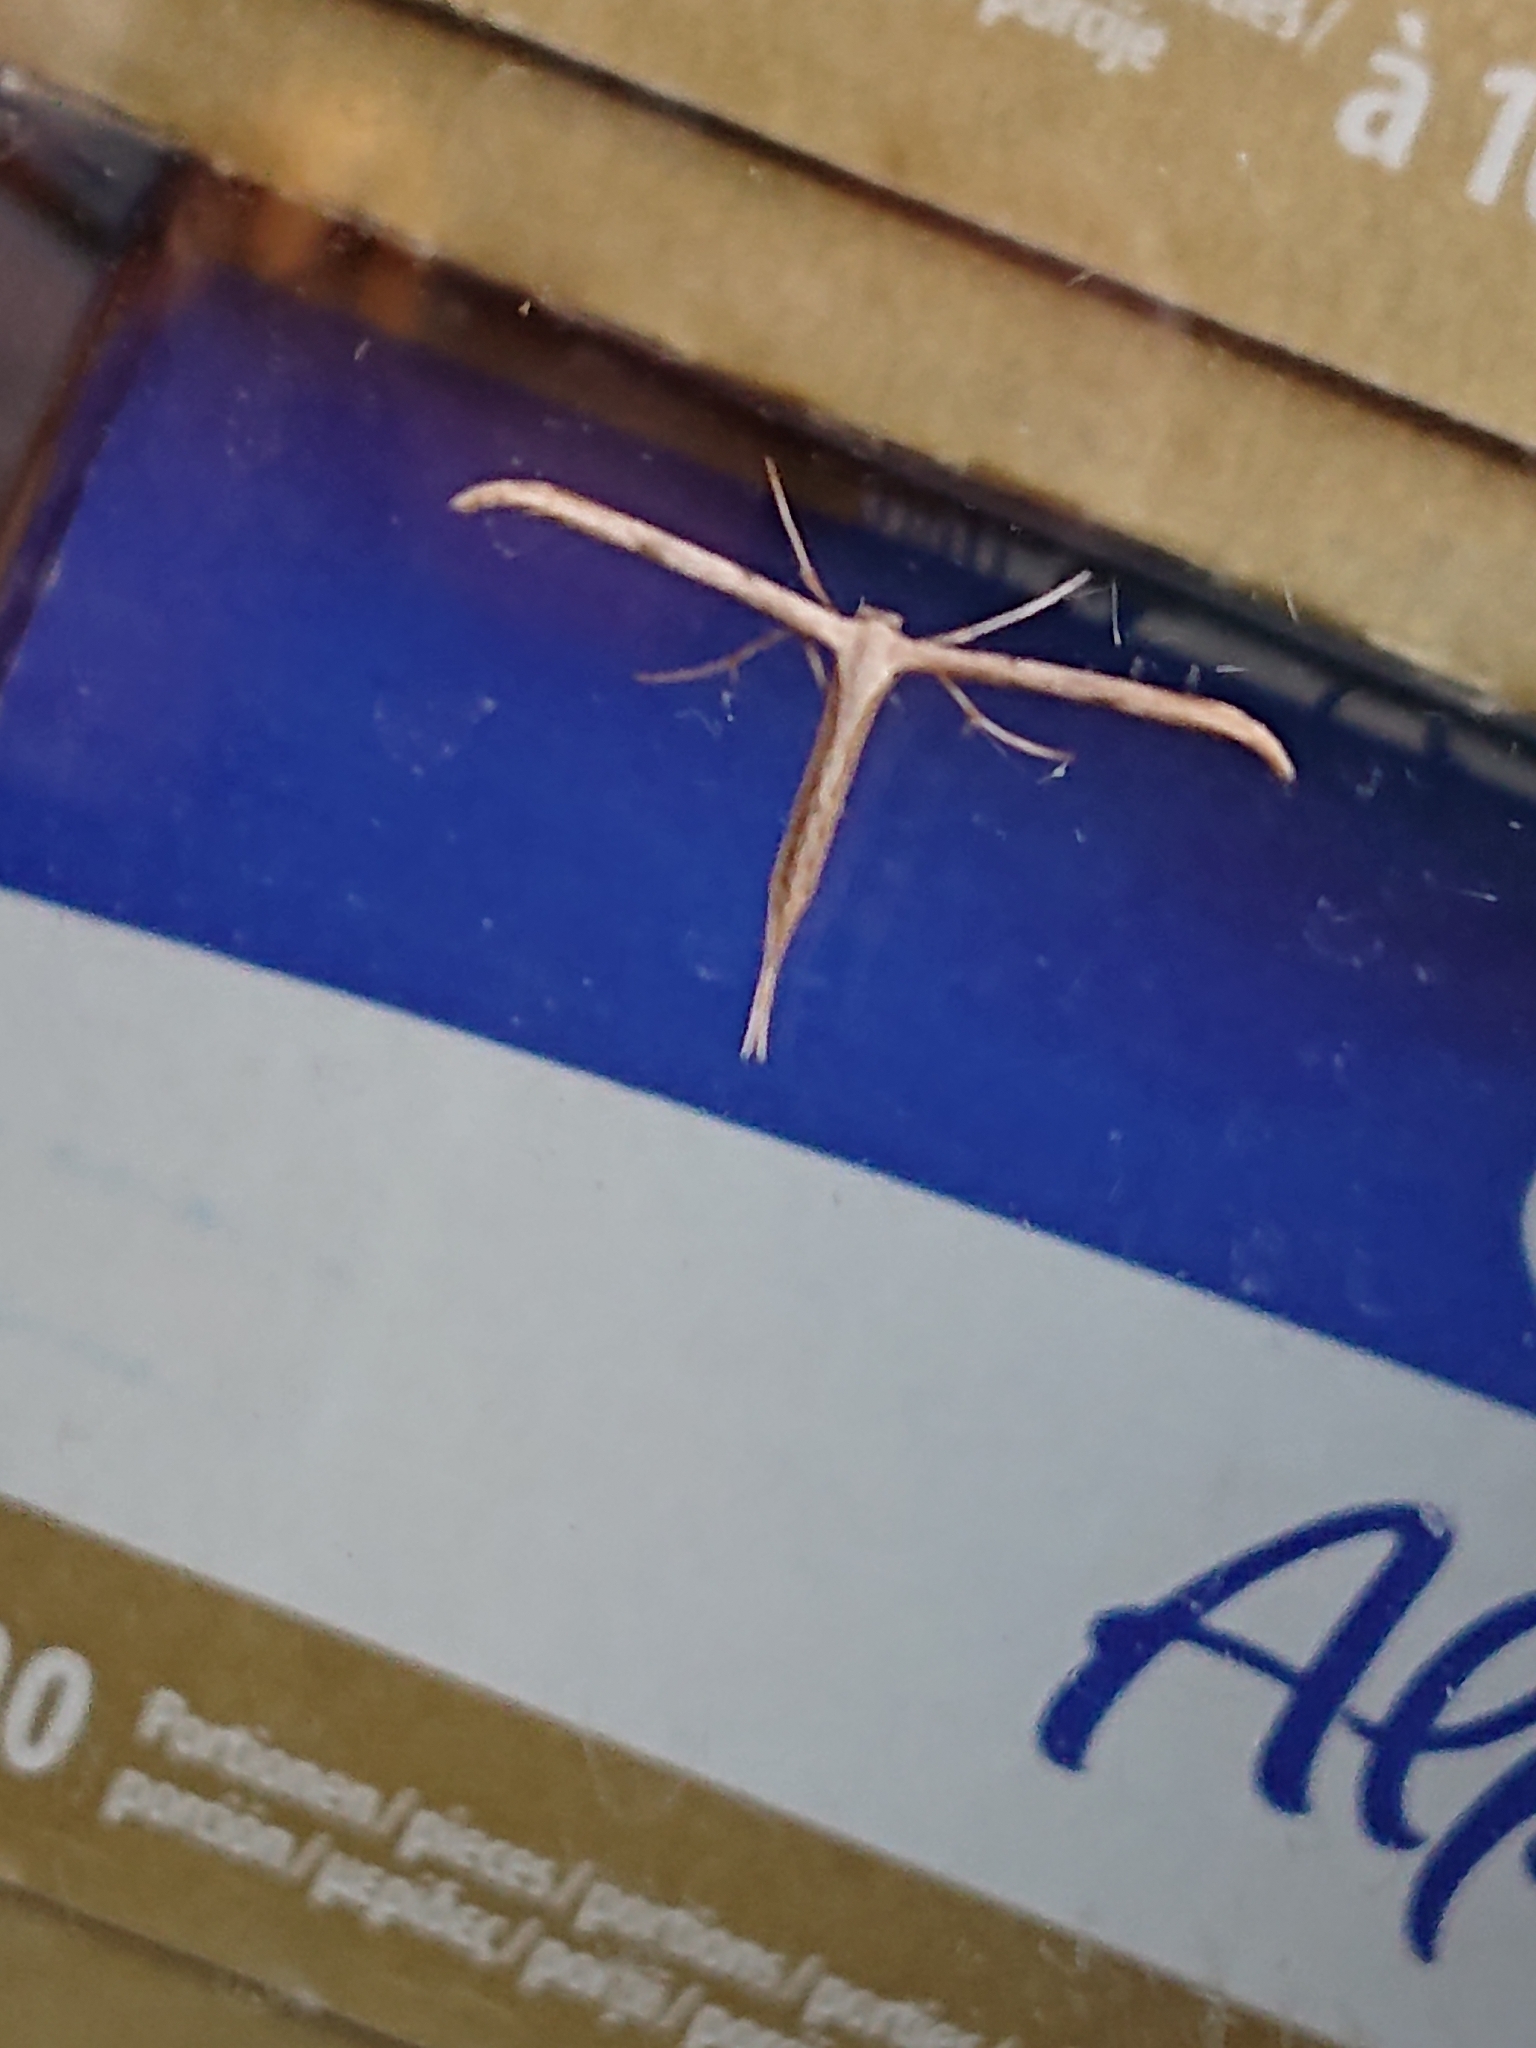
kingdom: Animalia
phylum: Arthropoda
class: Insecta
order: Lepidoptera
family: Pterophoridae
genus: Emmelina
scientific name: Emmelina monodactyla
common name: Common plume
